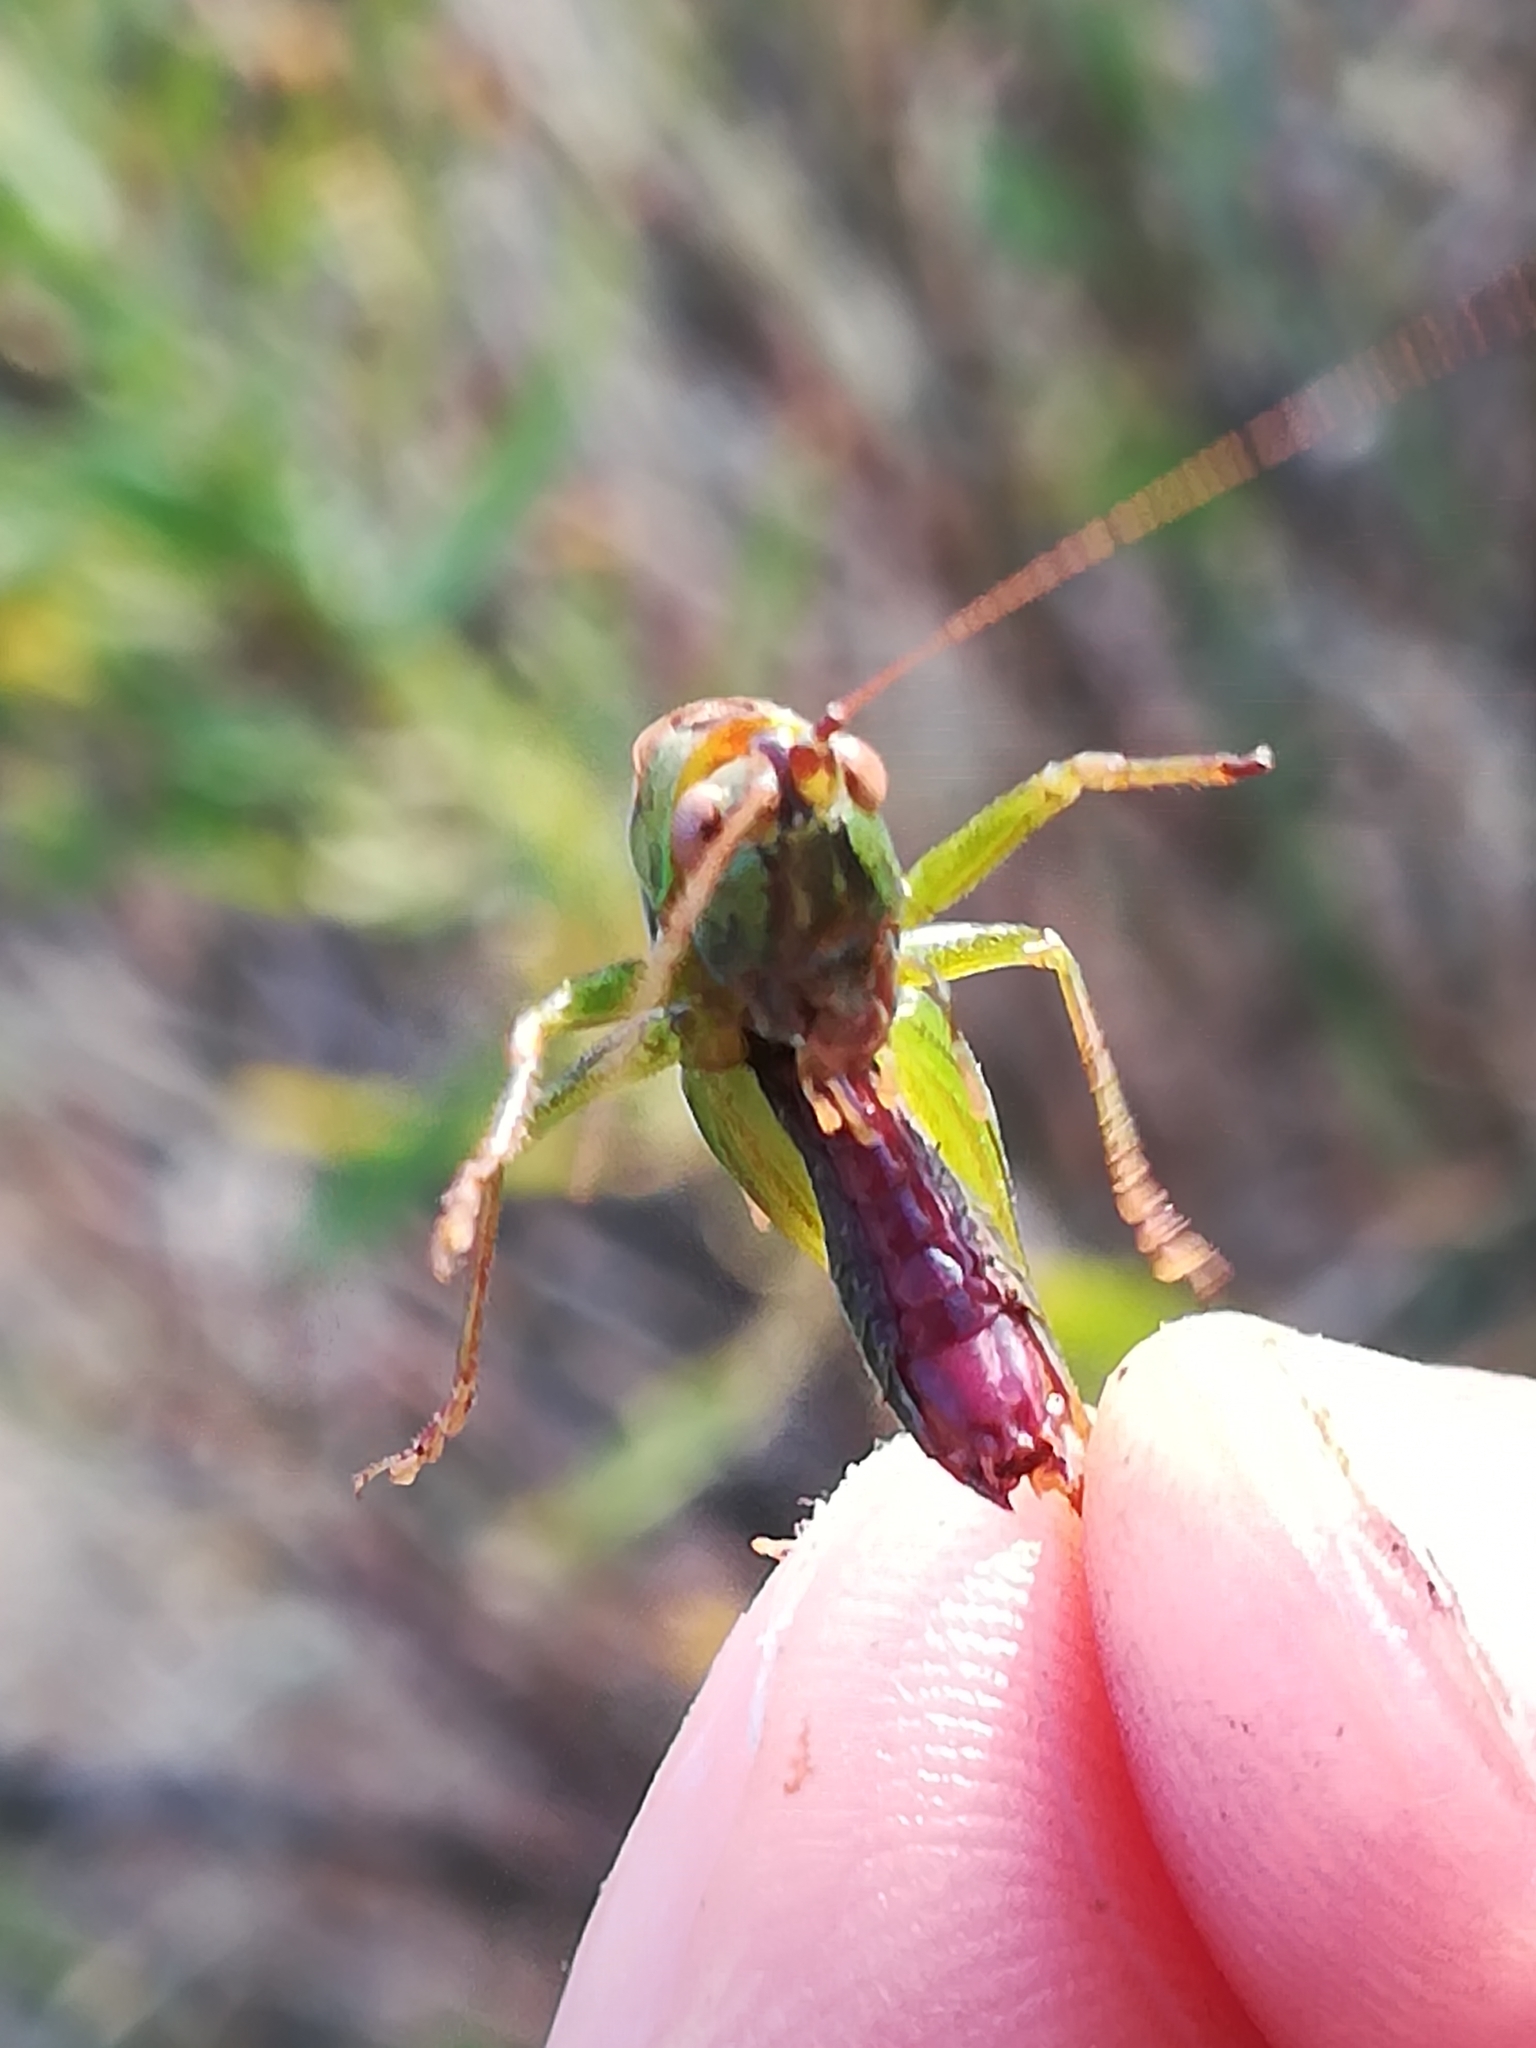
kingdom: Animalia
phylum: Arthropoda
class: Insecta
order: Orthoptera
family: Tettigoniidae
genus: Conocephalus
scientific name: Conocephalus fuscus
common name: Long-winged conehead
